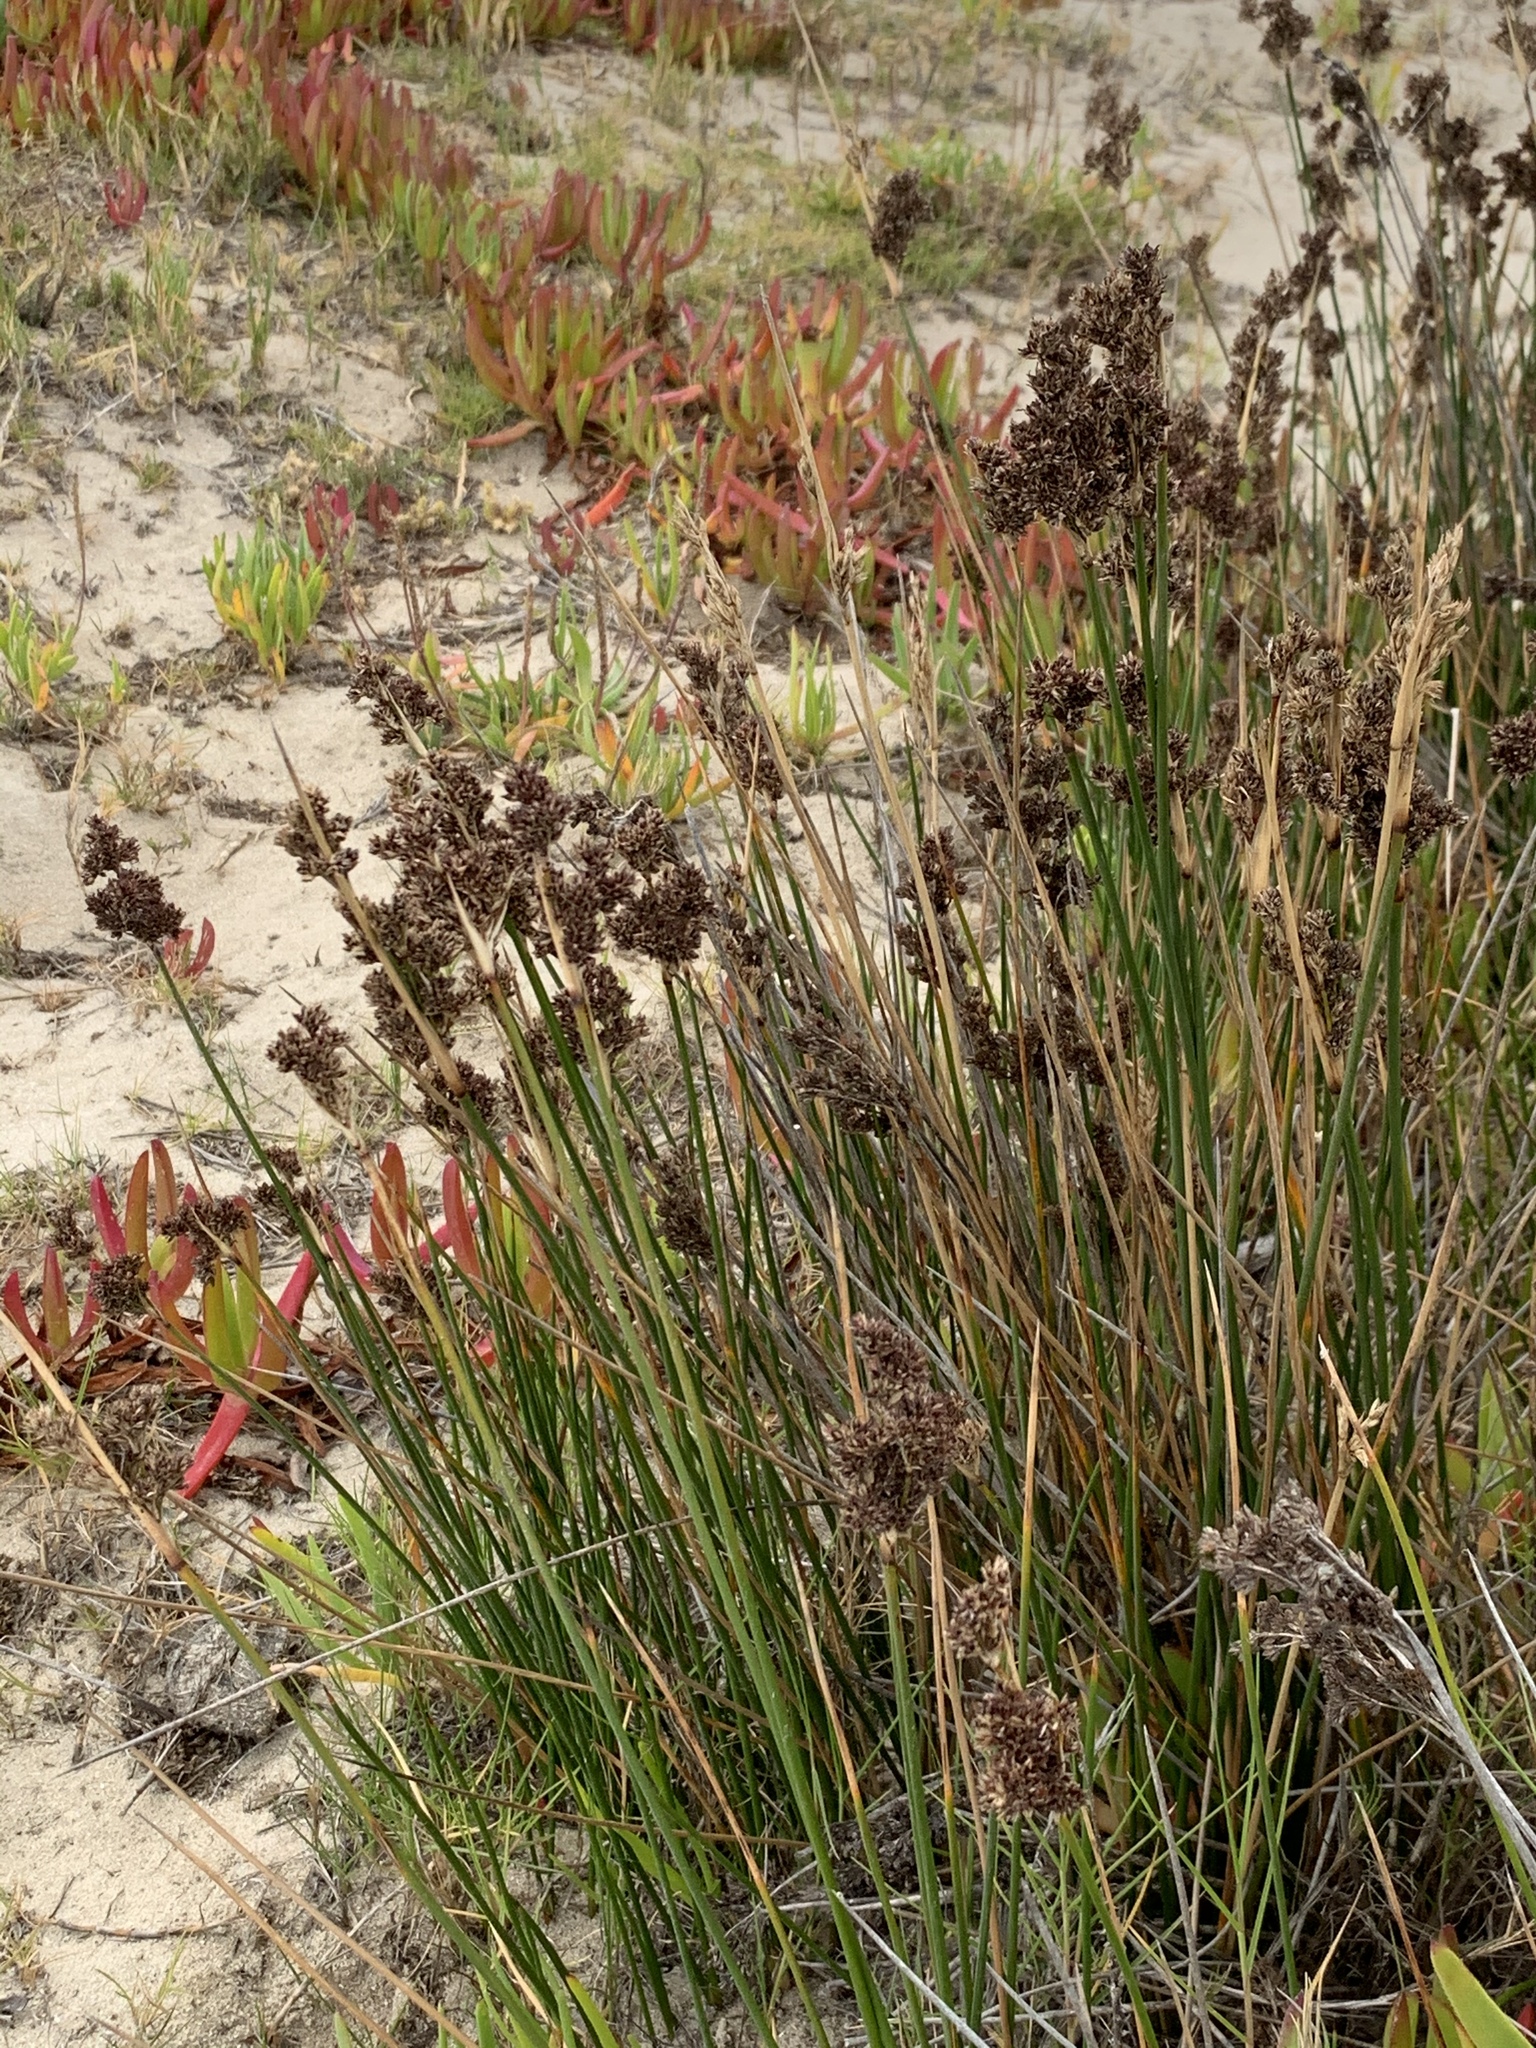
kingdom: Plantae
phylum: Tracheophyta
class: Liliopsida
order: Poales
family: Juncaceae
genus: Juncus
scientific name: Juncus kraussii
